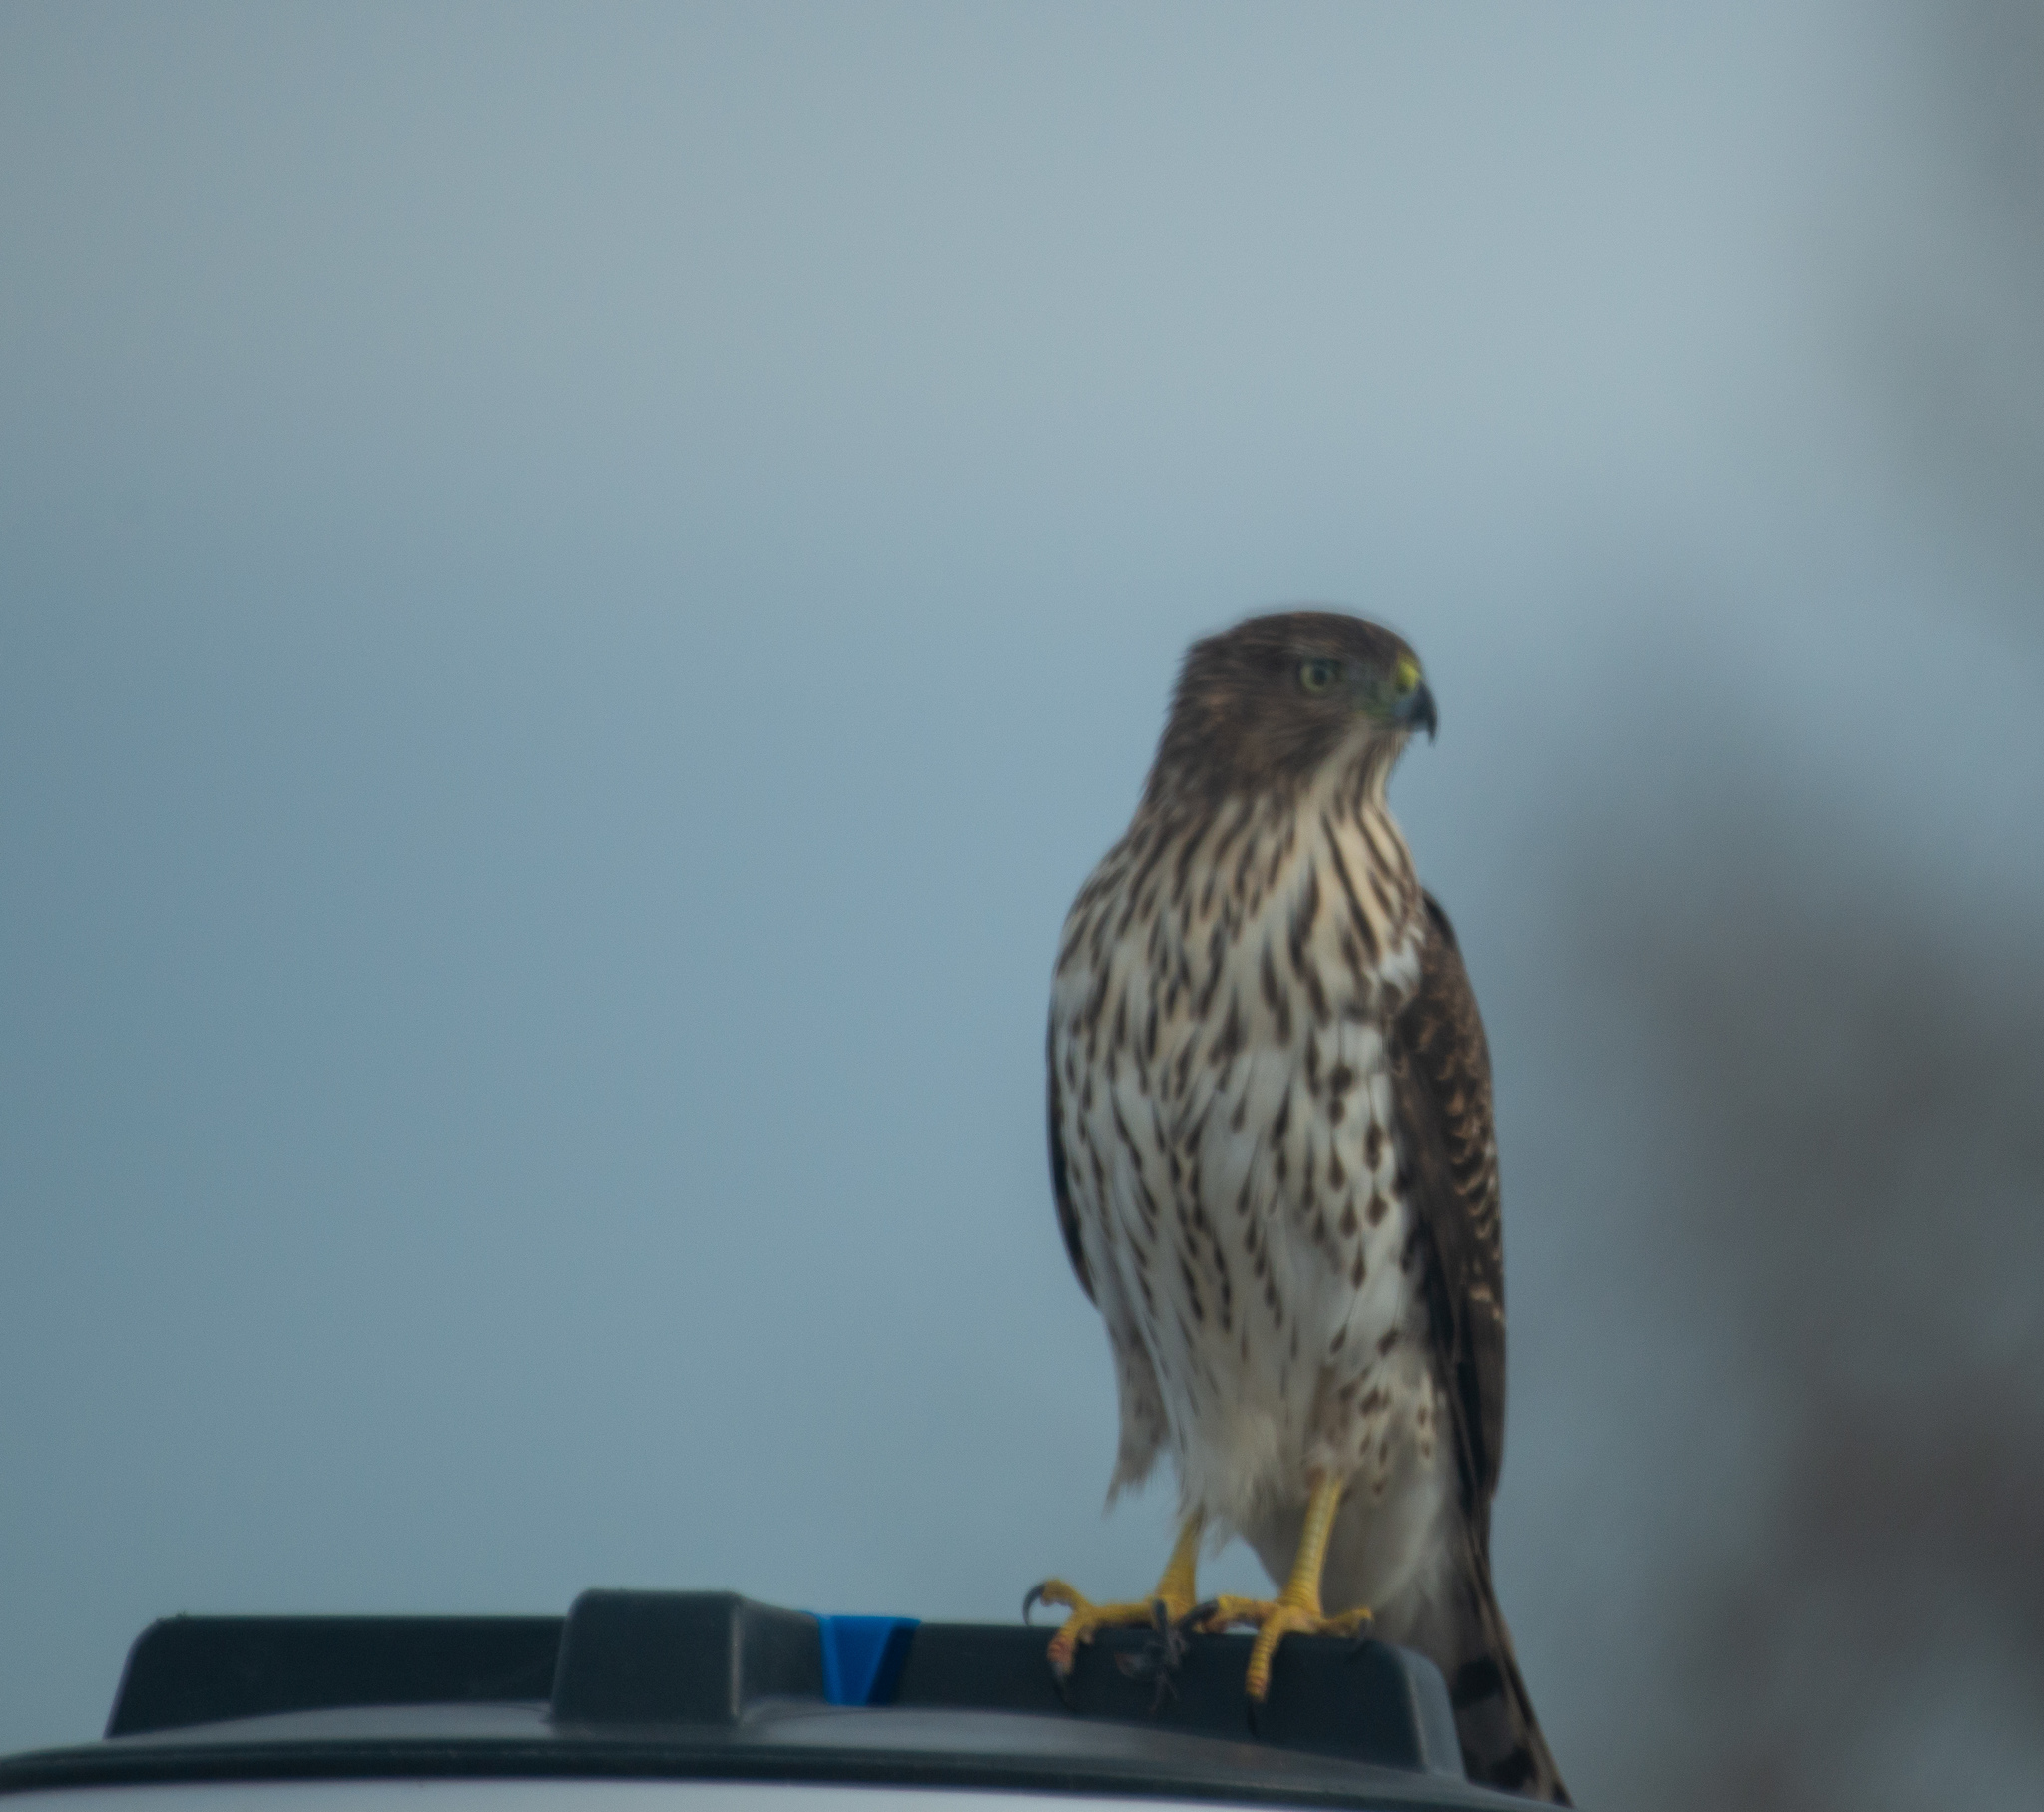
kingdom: Animalia
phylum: Chordata
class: Aves
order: Accipitriformes
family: Accipitridae
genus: Accipiter
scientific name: Accipiter cooperii
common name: Cooper's hawk
